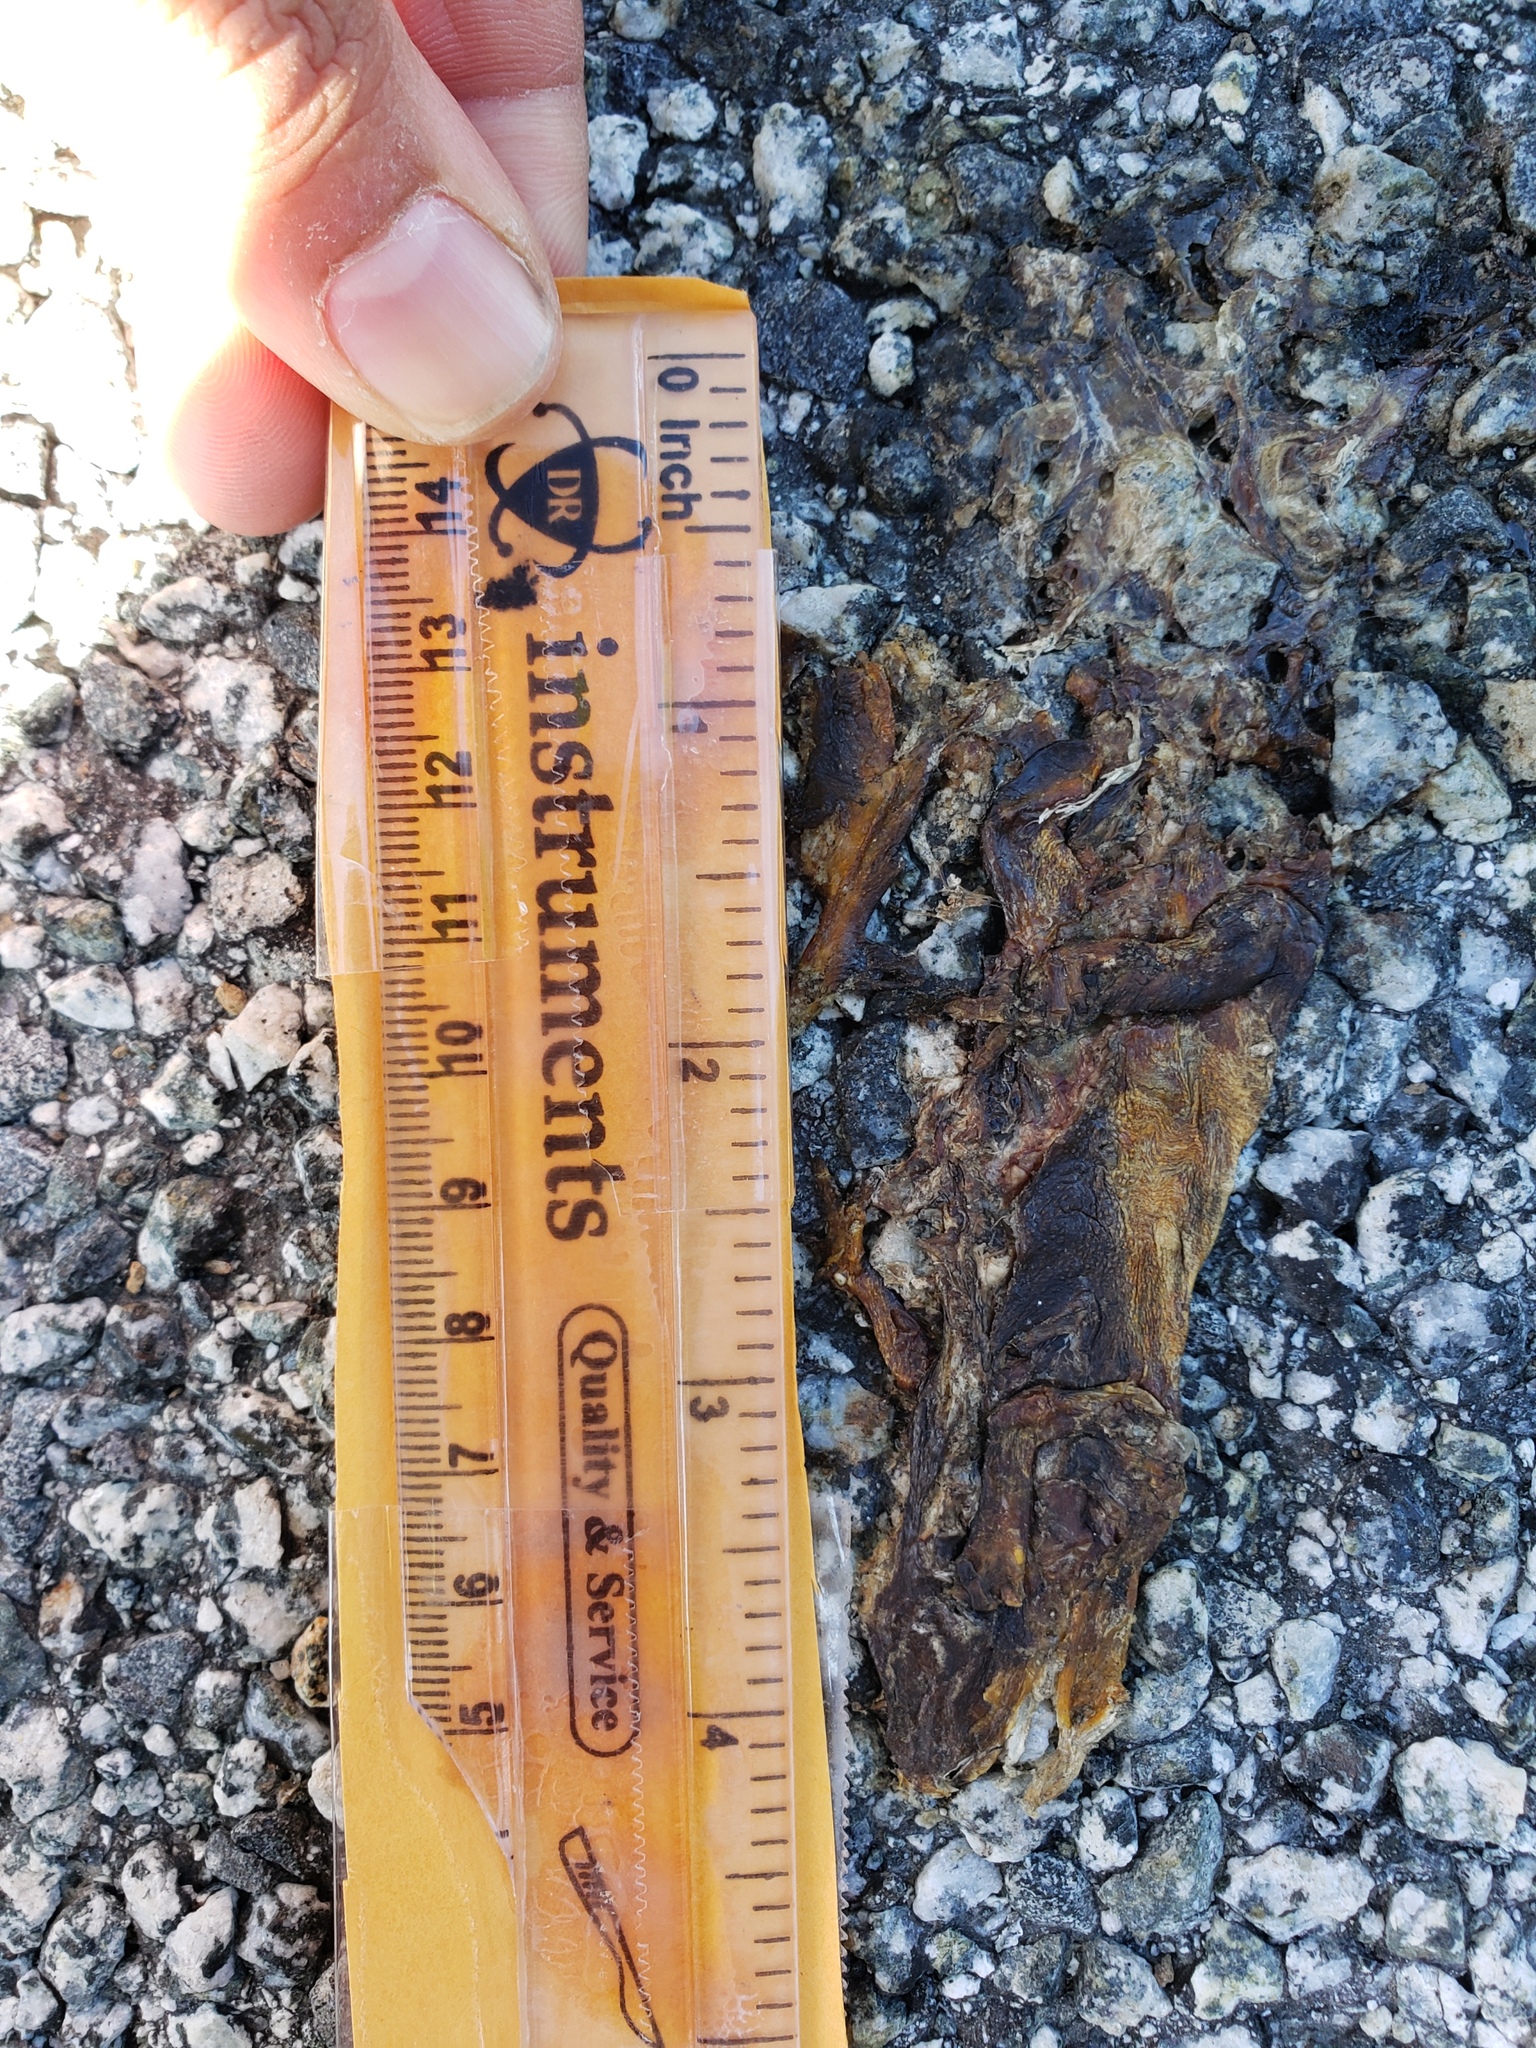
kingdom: Animalia
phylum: Chordata
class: Amphibia
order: Caudata
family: Salamandridae
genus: Taricha
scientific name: Taricha
